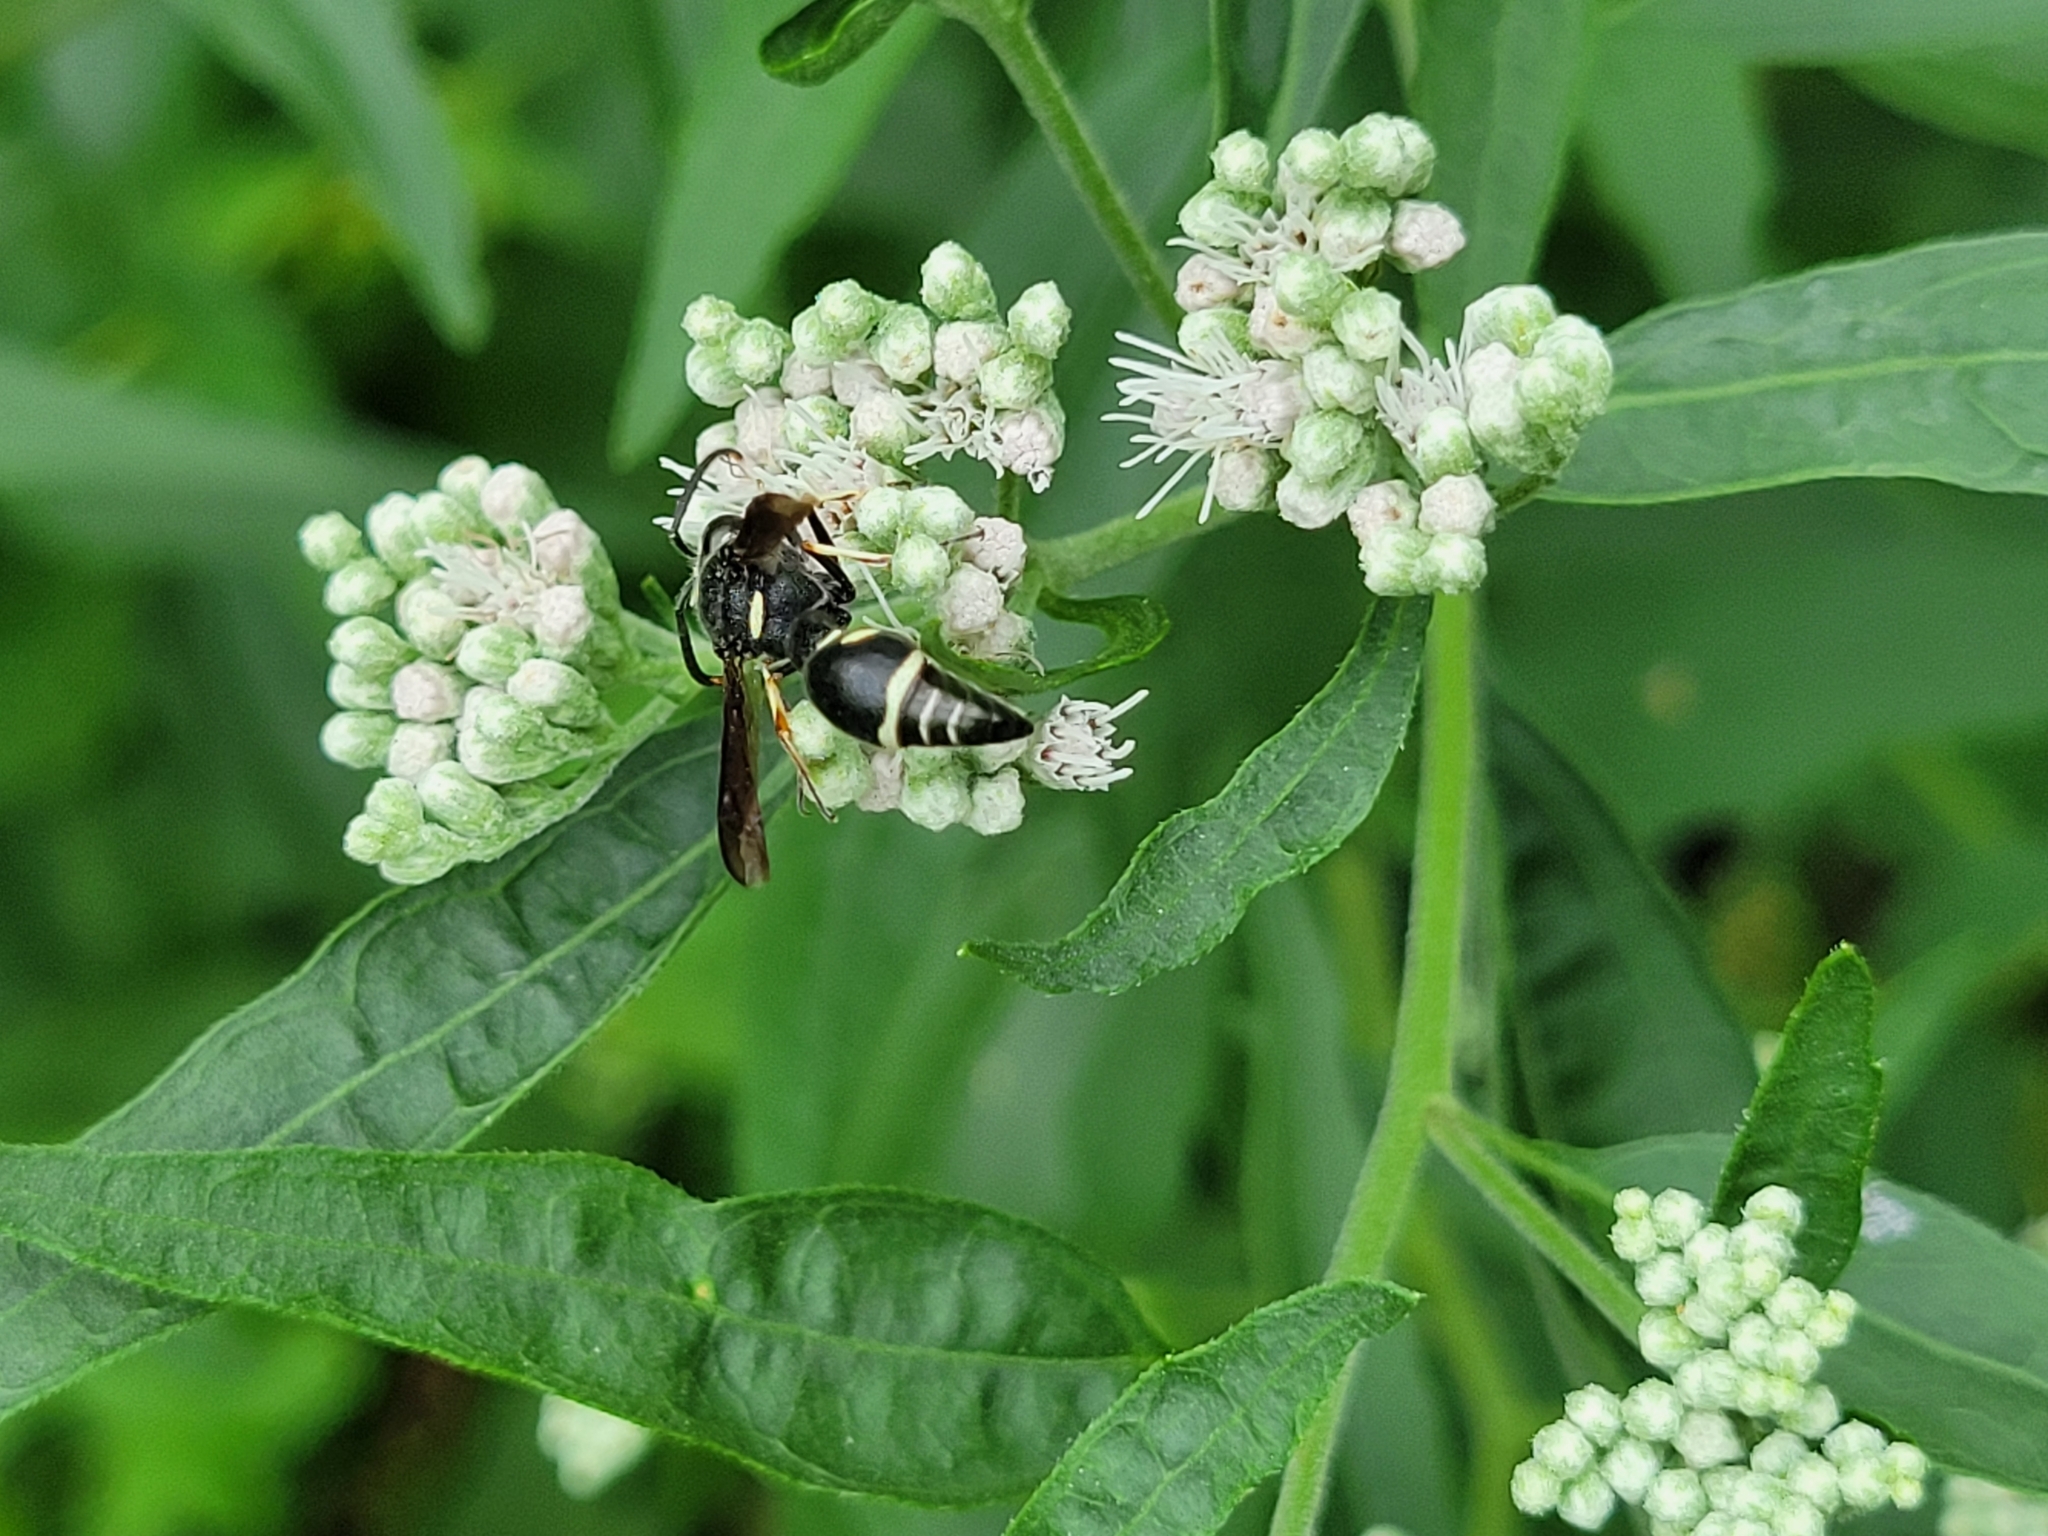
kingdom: Animalia
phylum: Arthropoda
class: Insecta
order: Hymenoptera
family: Vespidae
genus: Eumenes
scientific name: Eumenes fraternus
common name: Fraternal potter wasp
